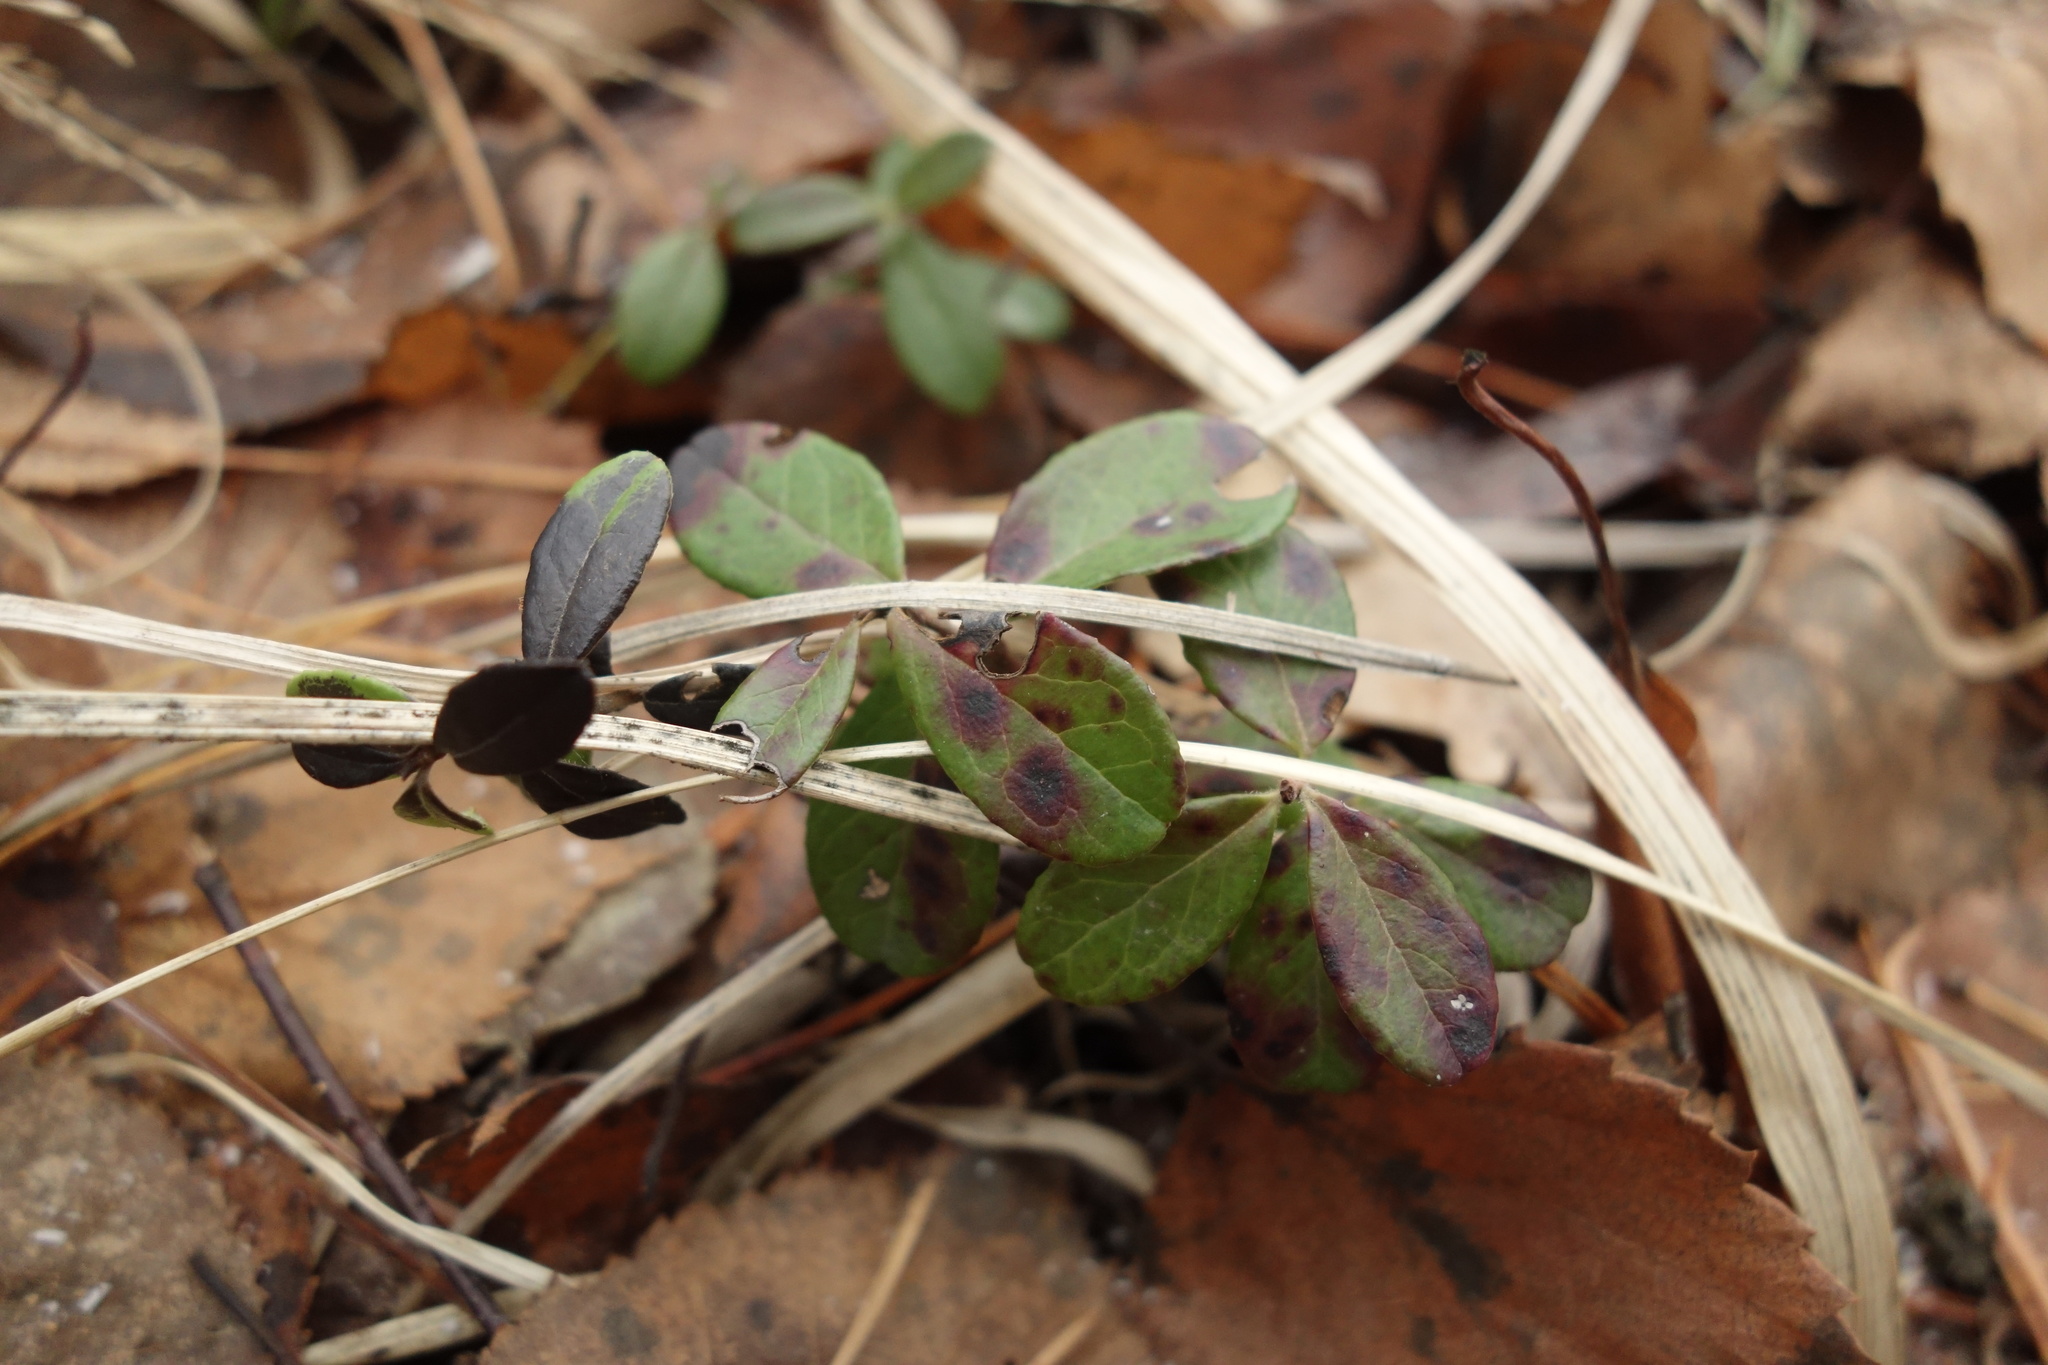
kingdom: Plantae
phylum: Tracheophyta
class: Magnoliopsida
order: Ericales
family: Ericaceae
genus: Vaccinium
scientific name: Vaccinium vitis-idaea
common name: Cowberry
